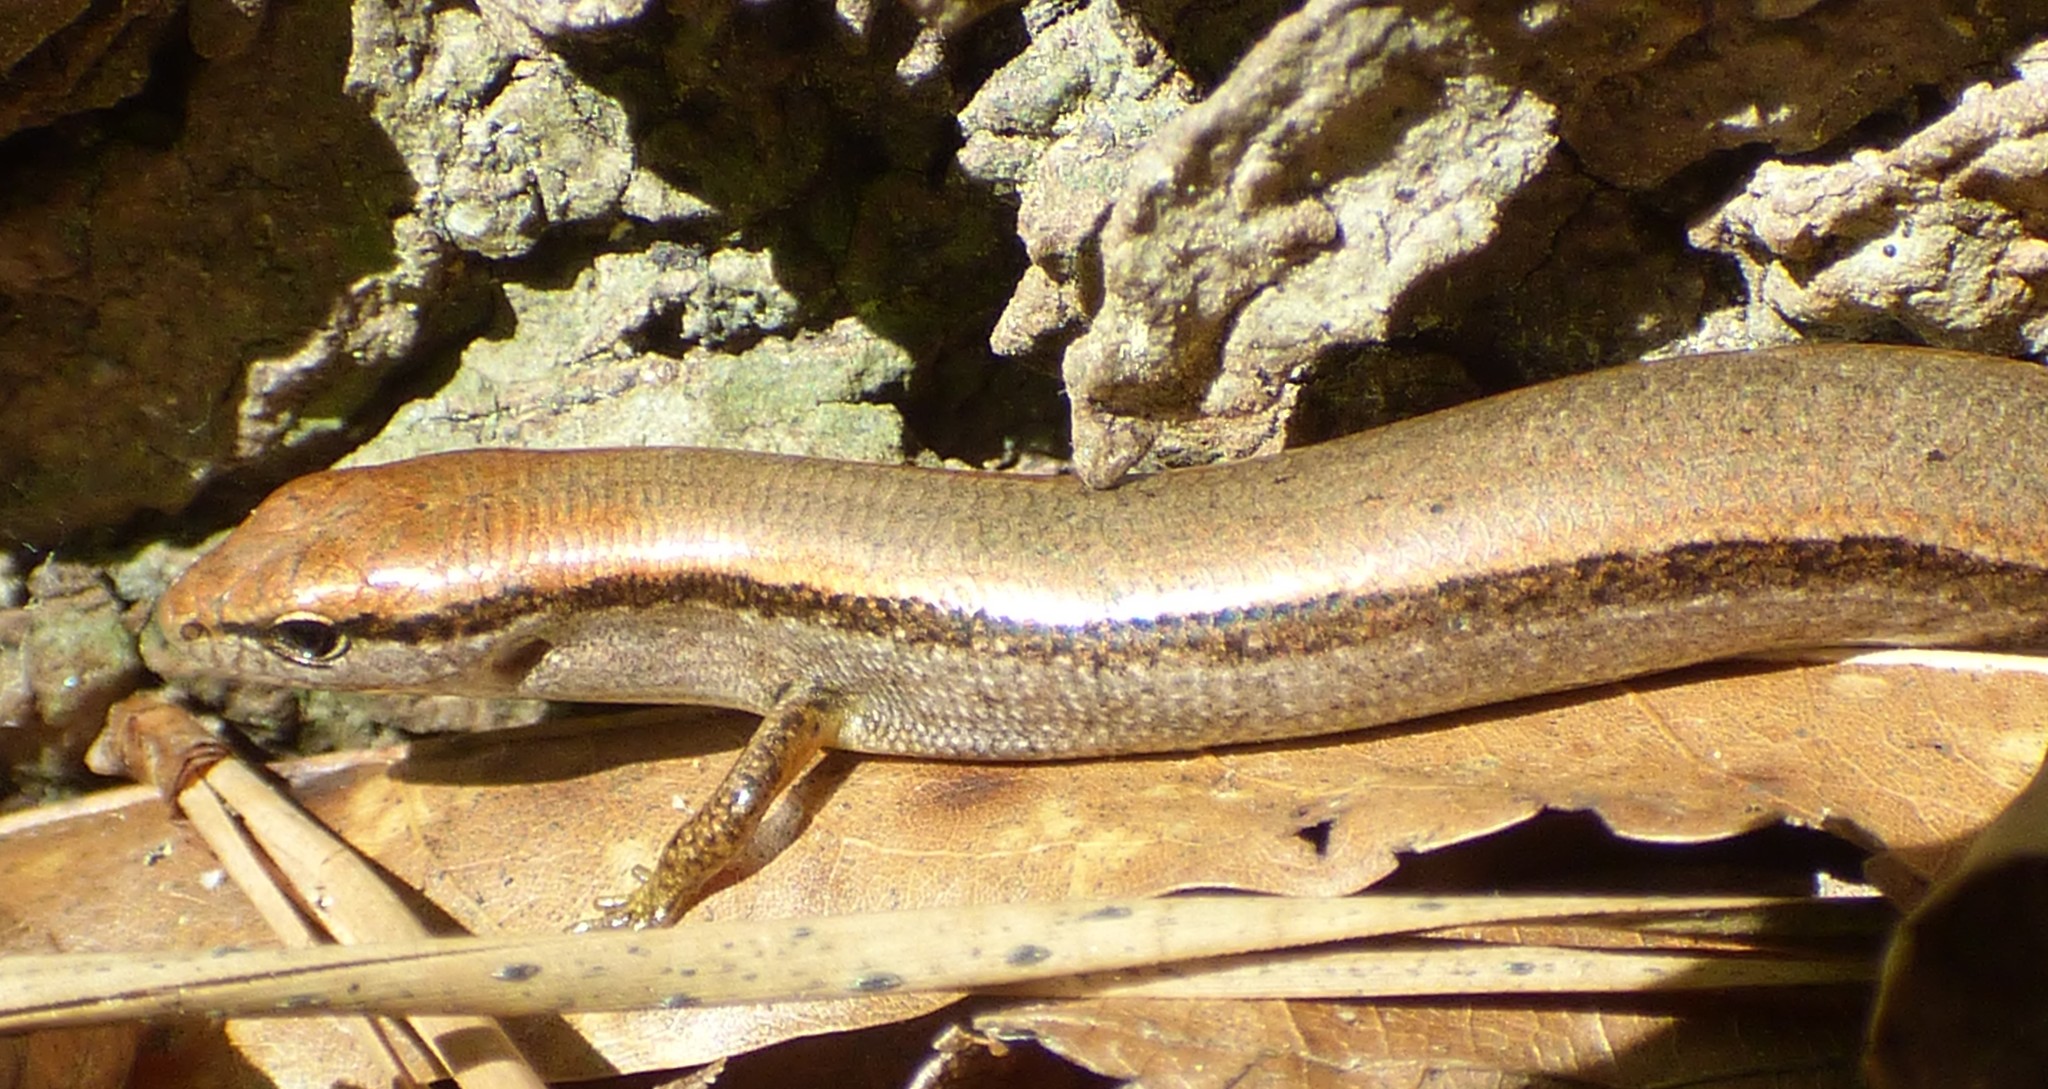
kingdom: Animalia
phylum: Chordata
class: Squamata
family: Scincidae
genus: Scincella
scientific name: Scincella lateralis
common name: Ground skink
